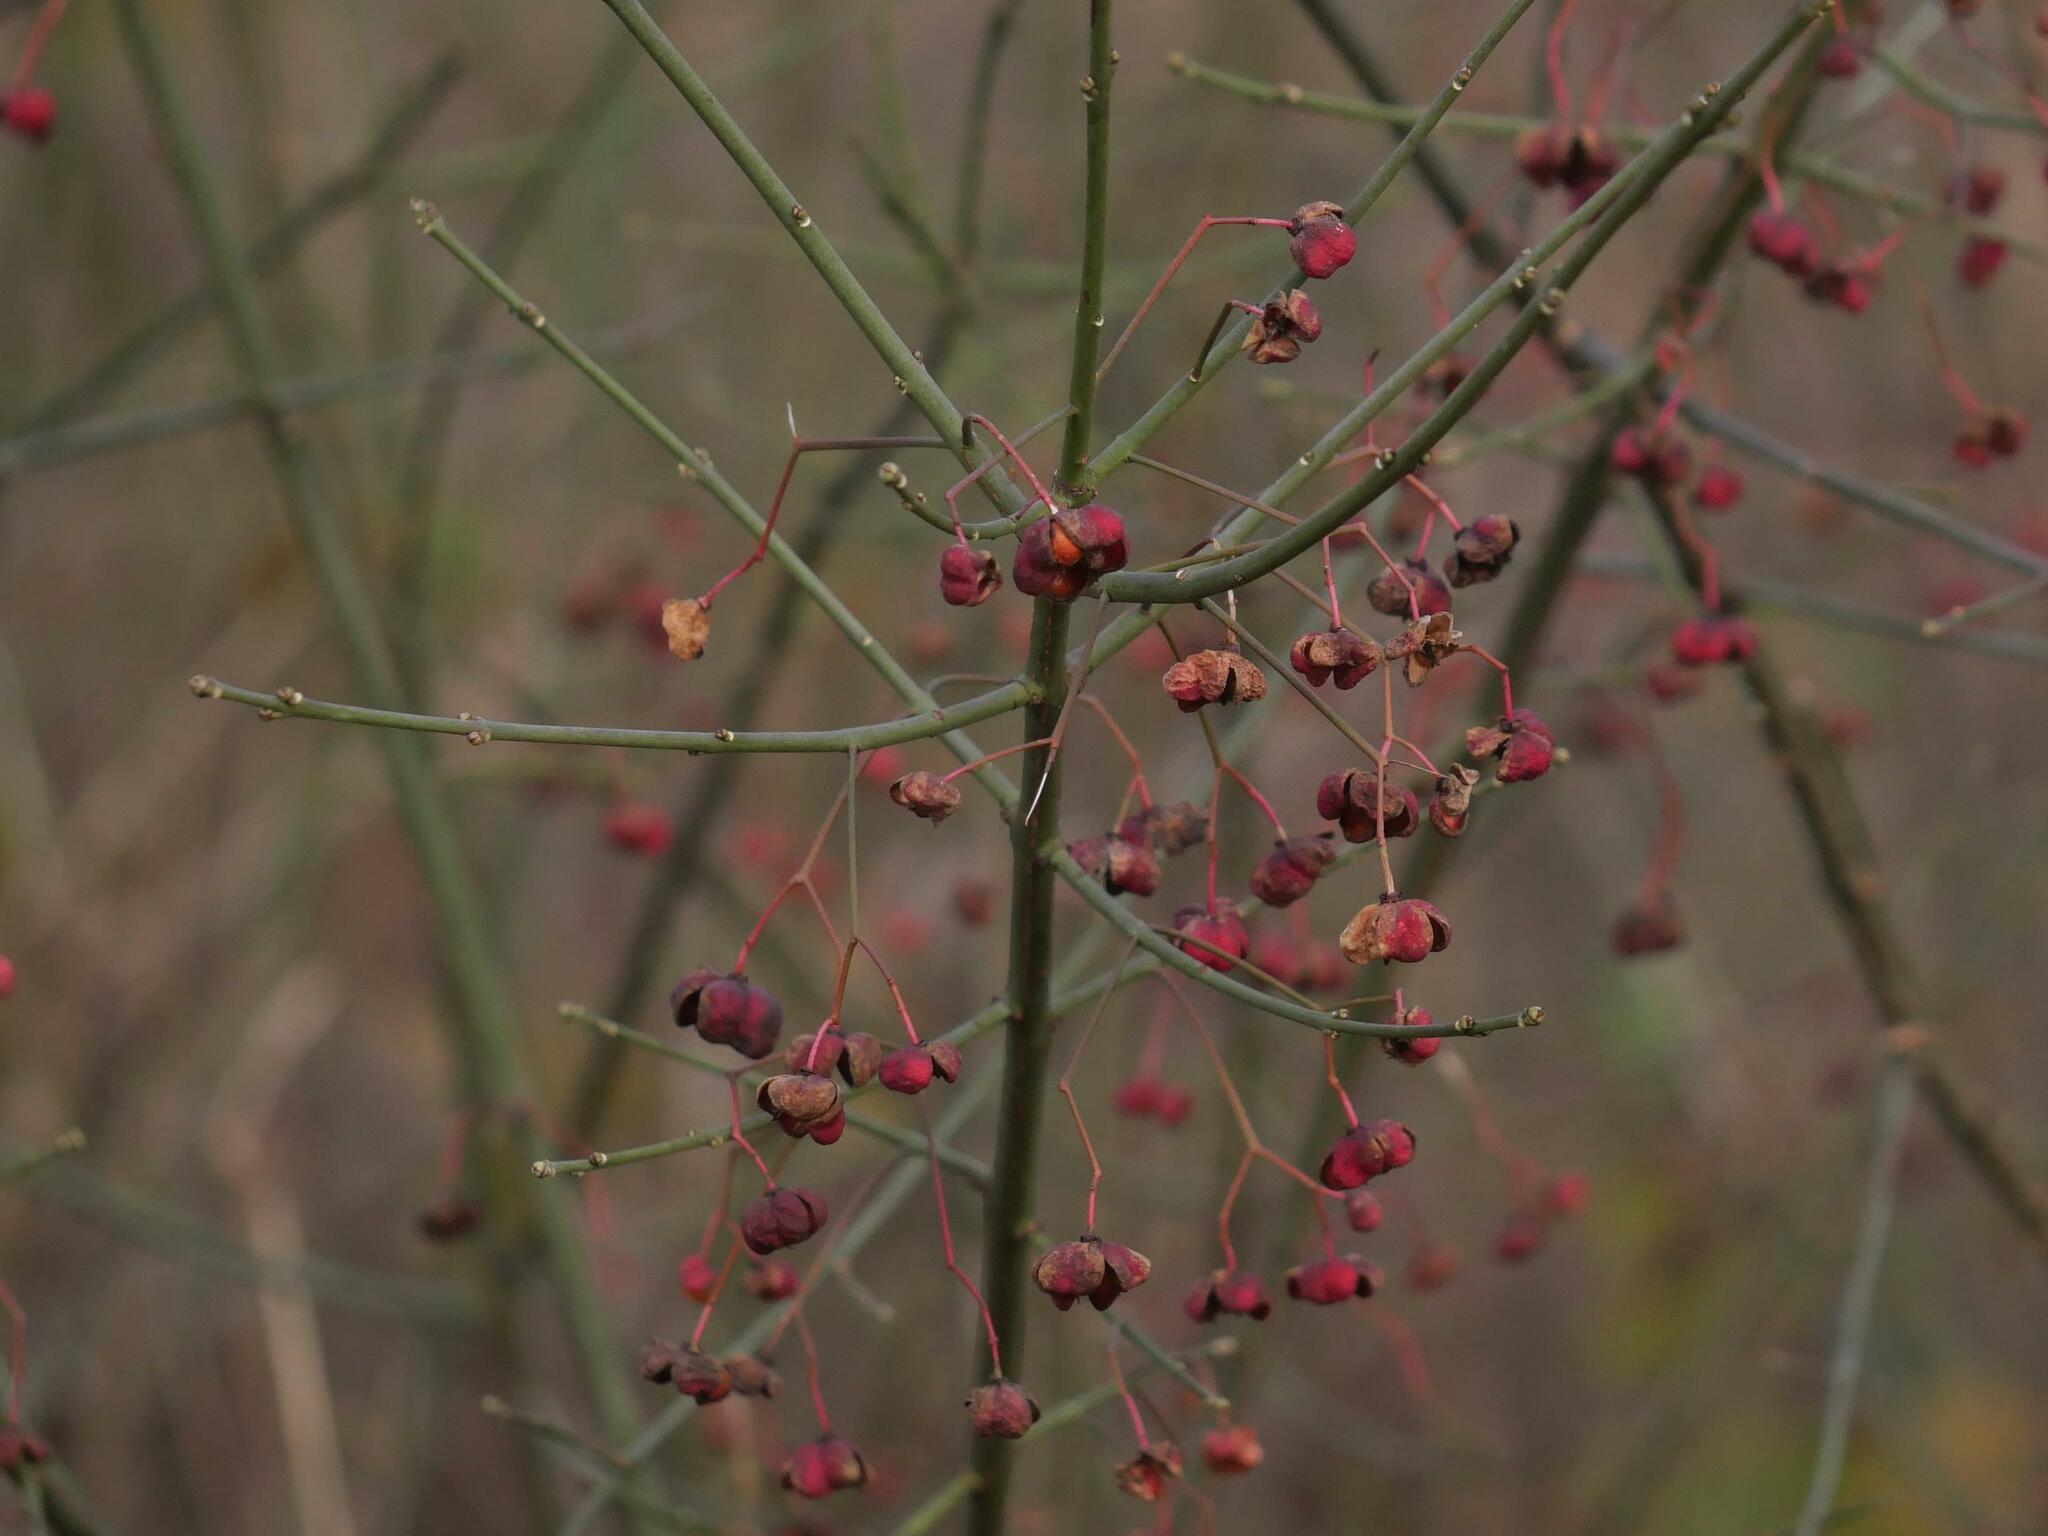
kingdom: Plantae
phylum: Tracheophyta
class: Magnoliopsida
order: Celastrales
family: Celastraceae
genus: Euonymus
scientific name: Euonymus europaeus
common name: Spindle
